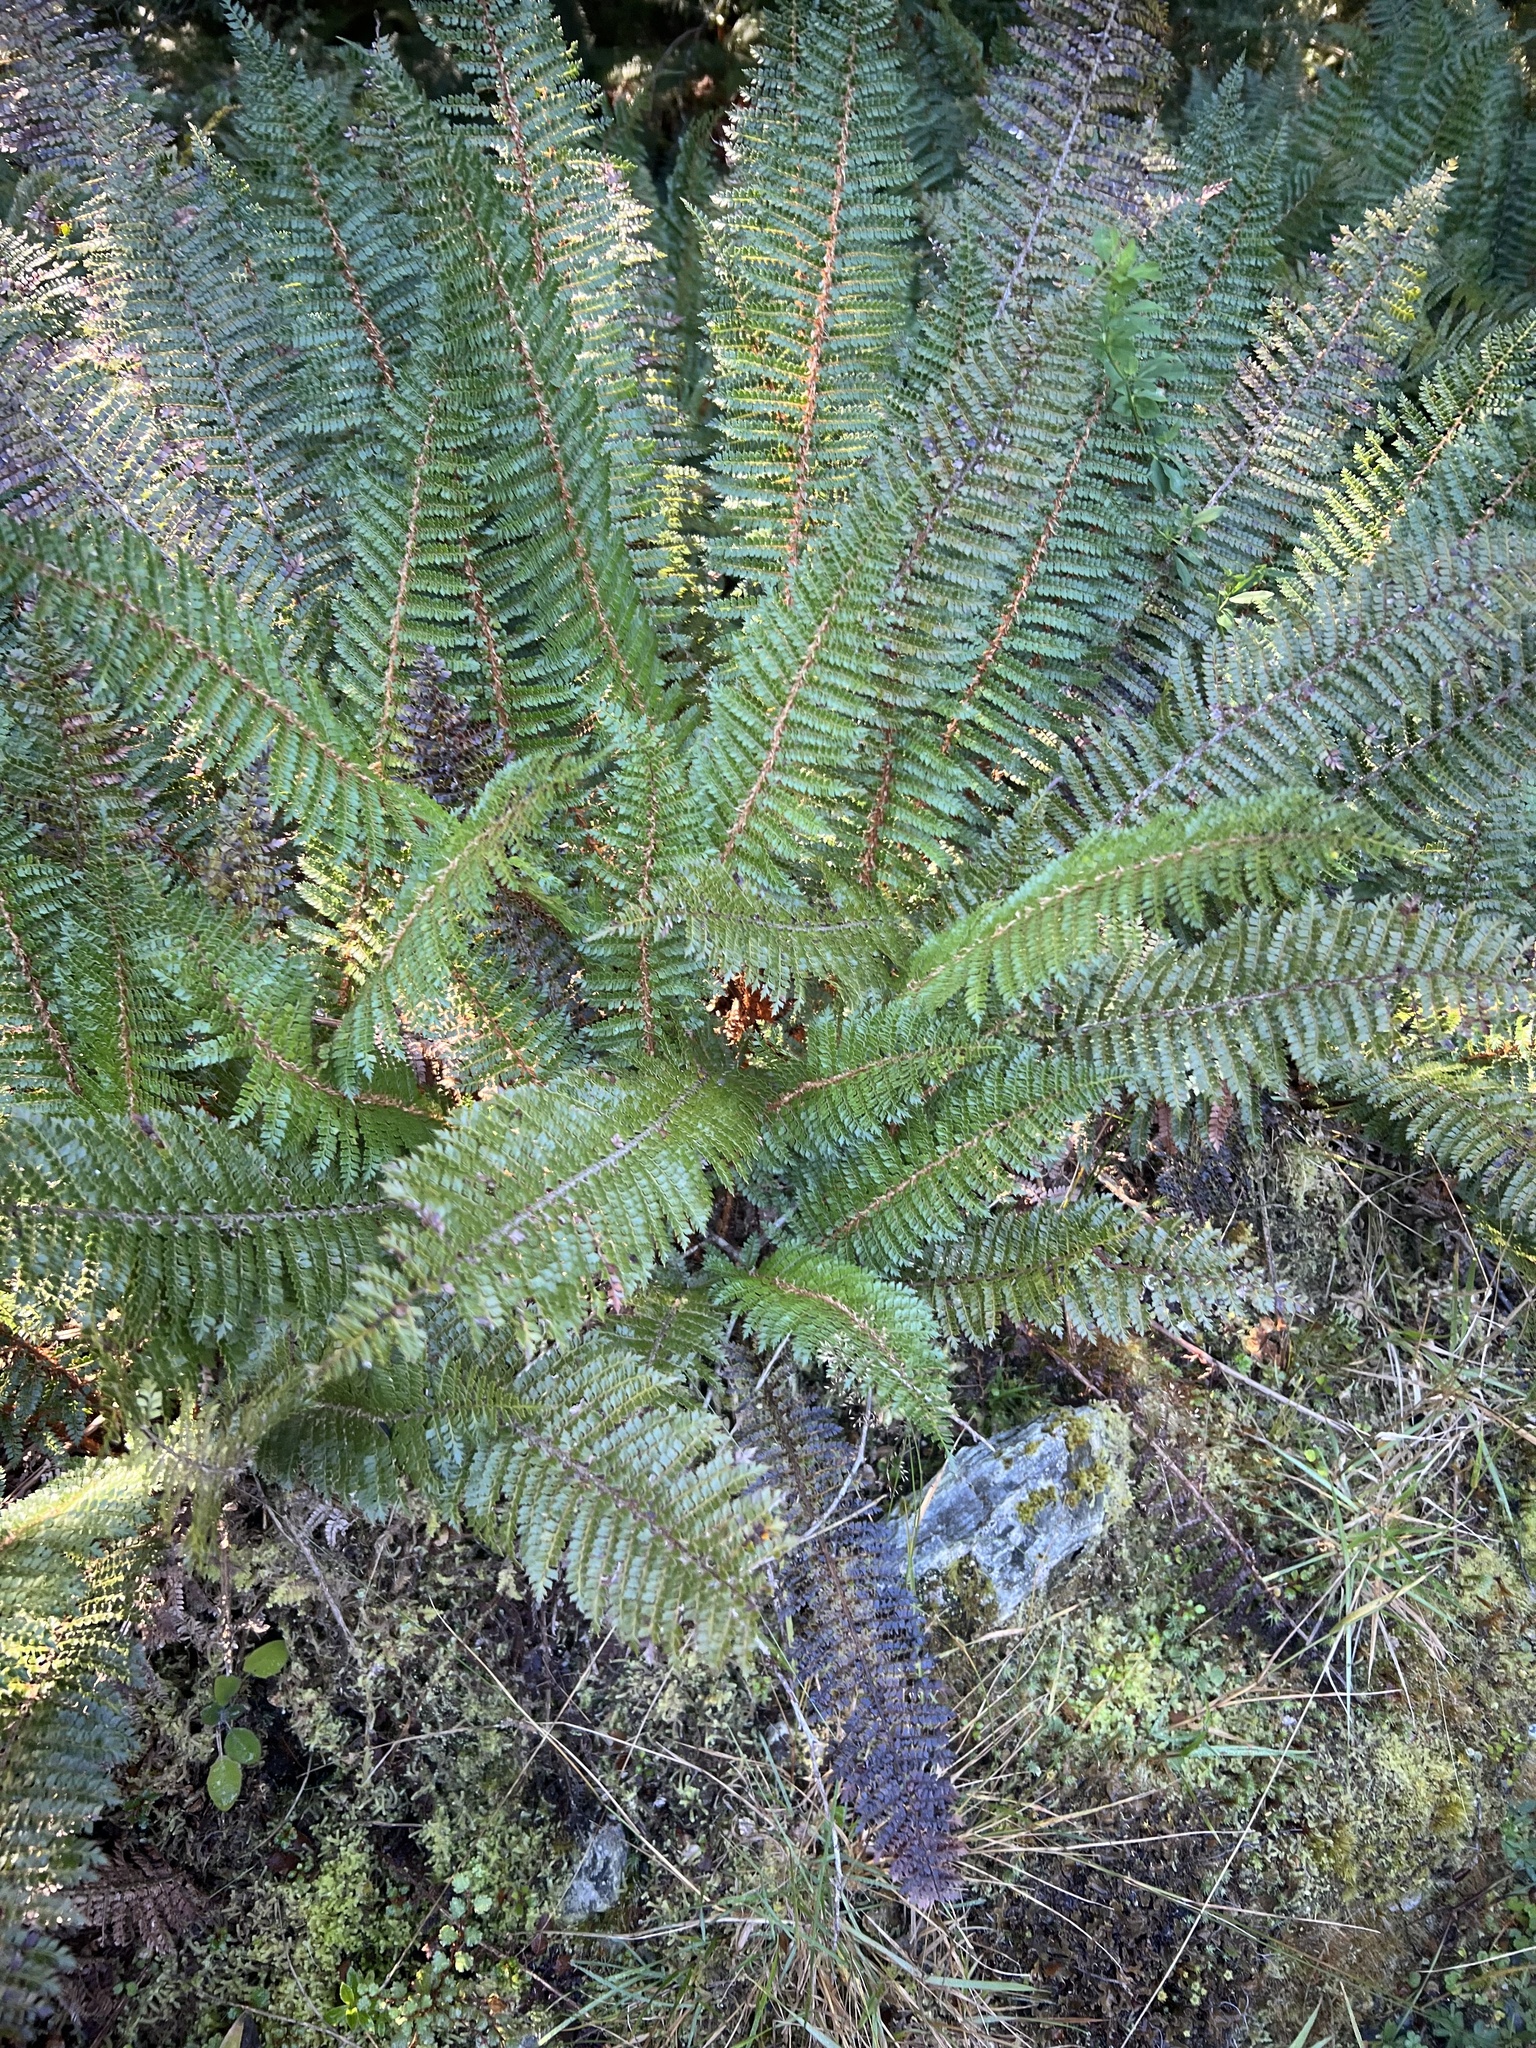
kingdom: Plantae
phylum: Tracheophyta
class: Polypodiopsida
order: Polypodiales
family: Dryopteridaceae
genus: Polystichum
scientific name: Polystichum vestitum
